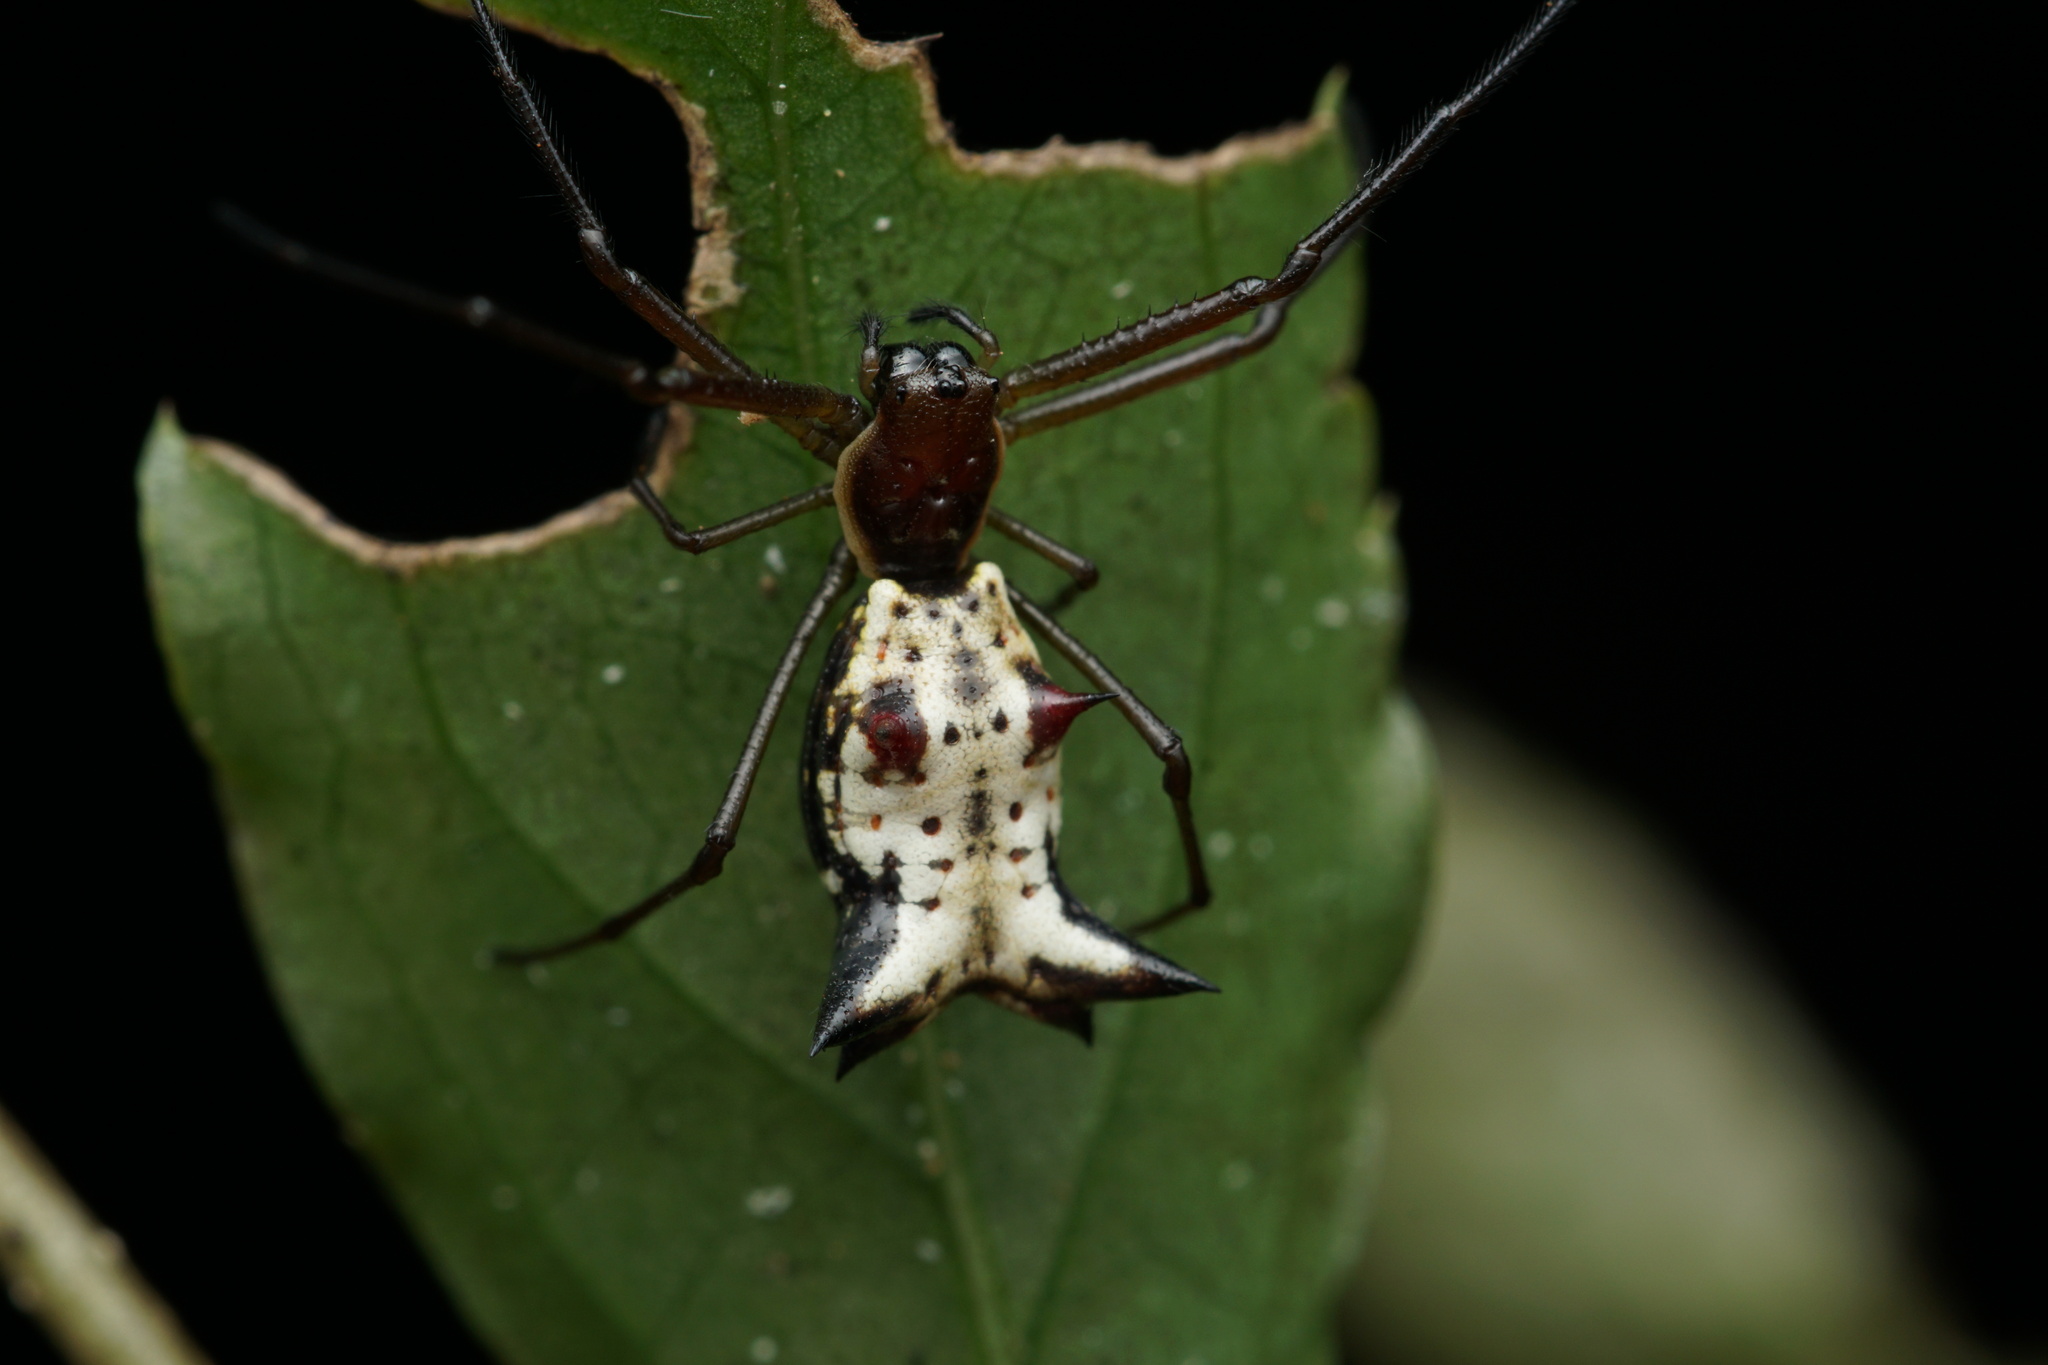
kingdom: Animalia
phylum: Arthropoda
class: Arachnida
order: Araneae
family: Araneidae
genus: Micrathena
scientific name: Micrathena nigrichelis
